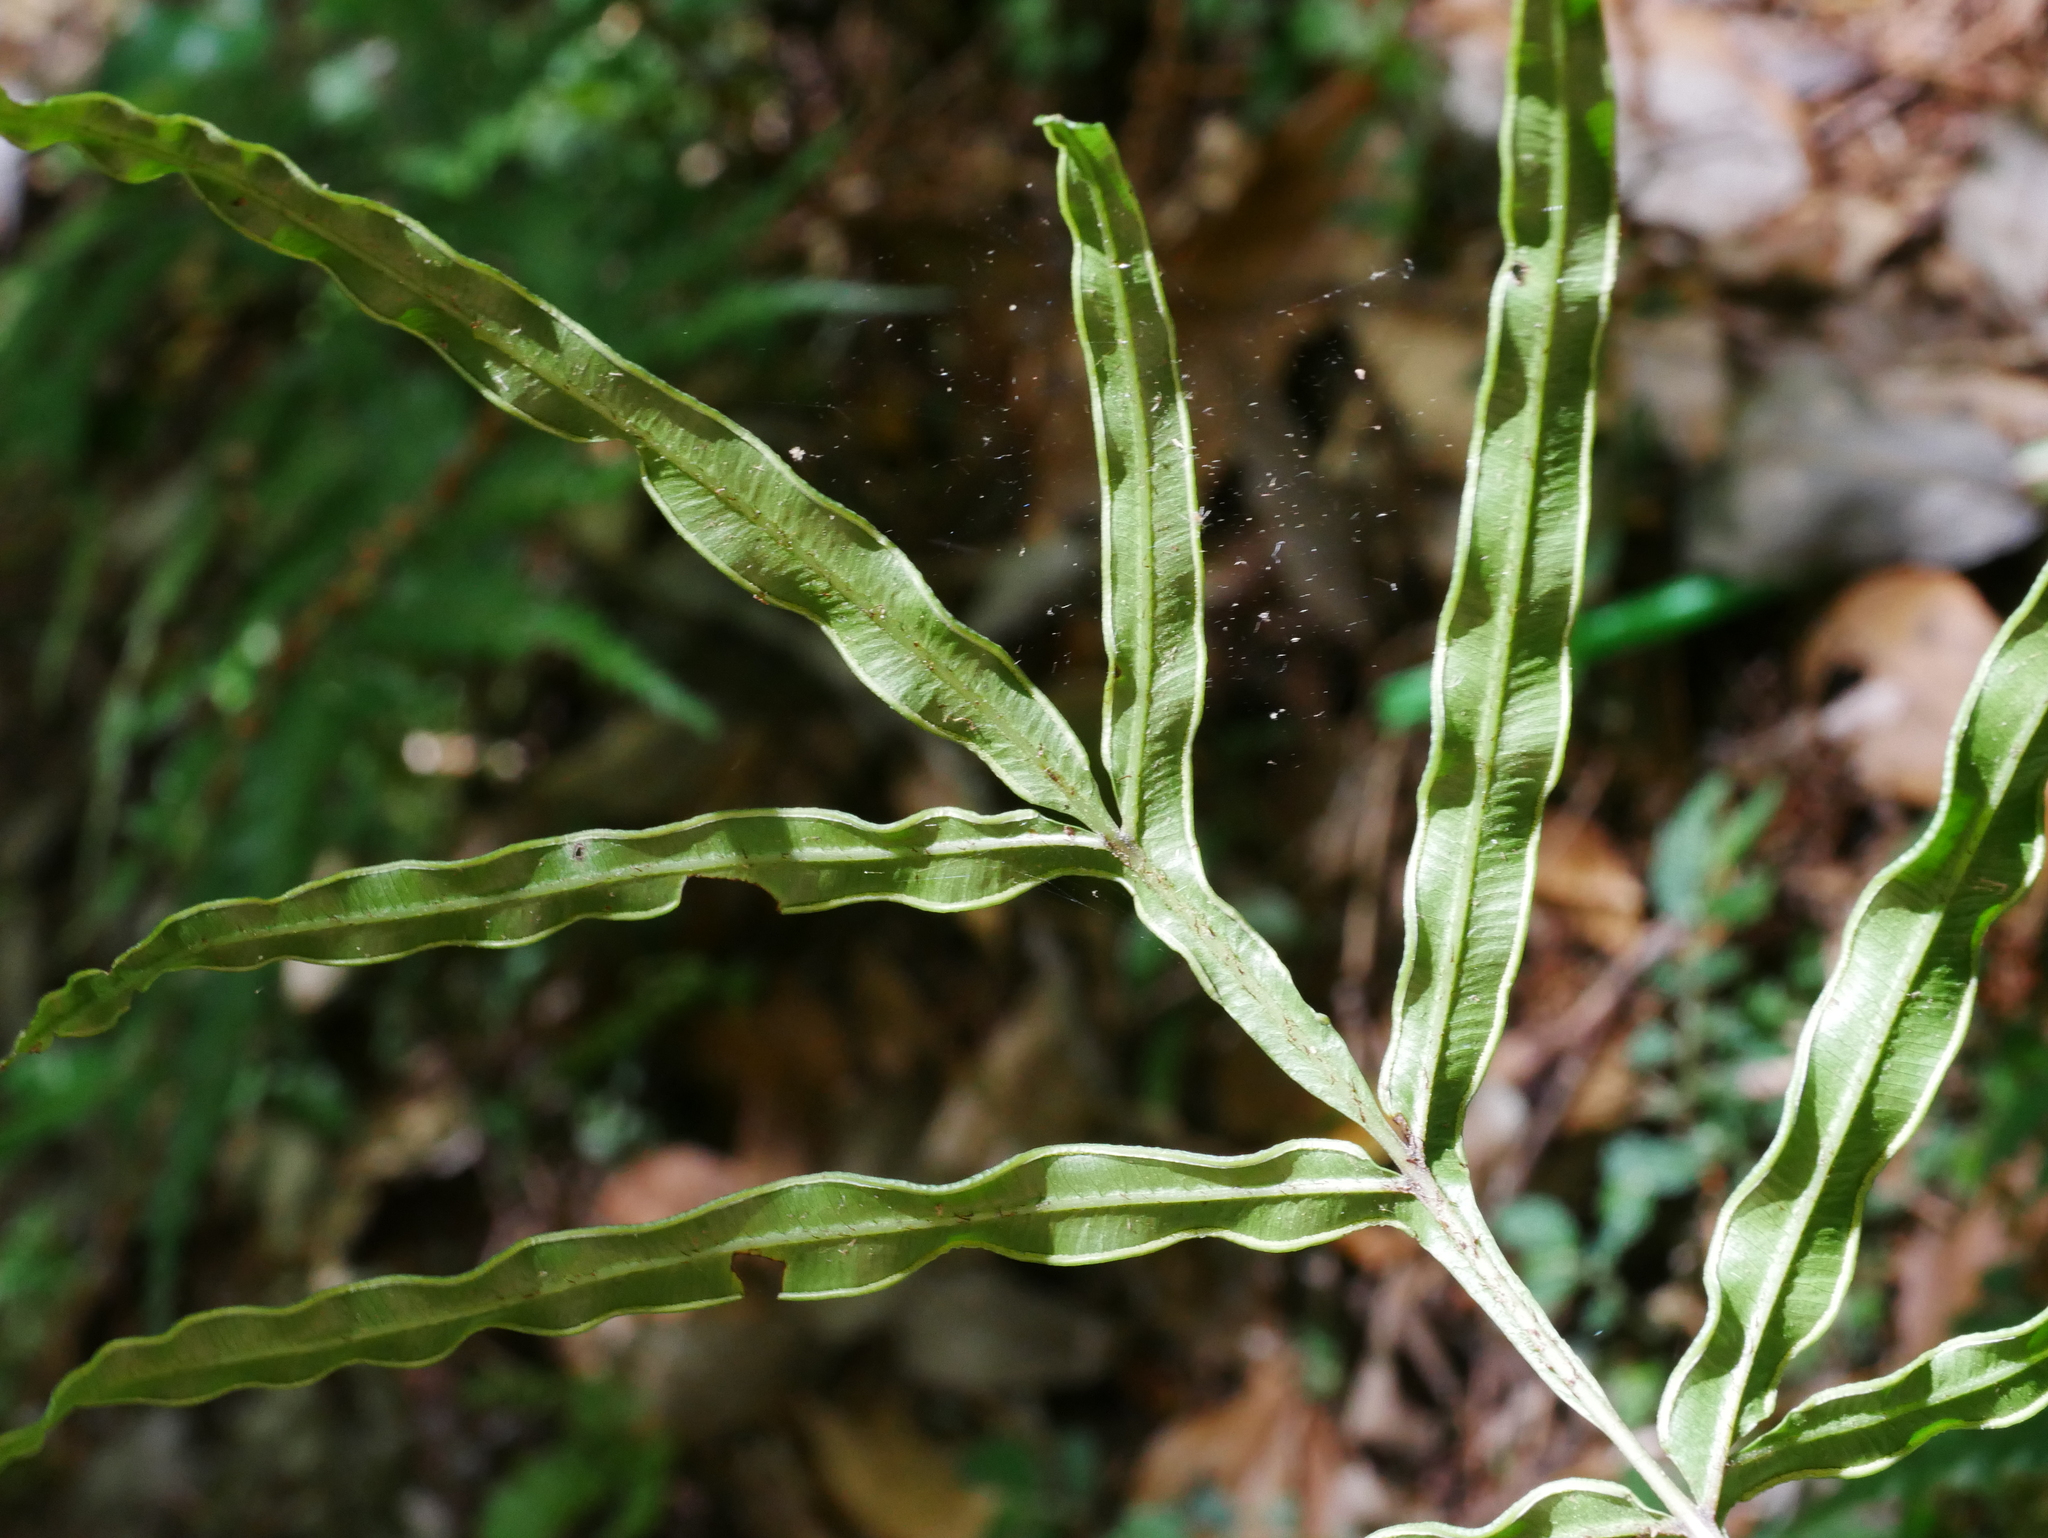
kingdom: Plantae
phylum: Tracheophyta
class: Polypodiopsida
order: Polypodiales
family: Pteridaceae
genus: Pteris
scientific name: Pteris cretica
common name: Ribbon fern
